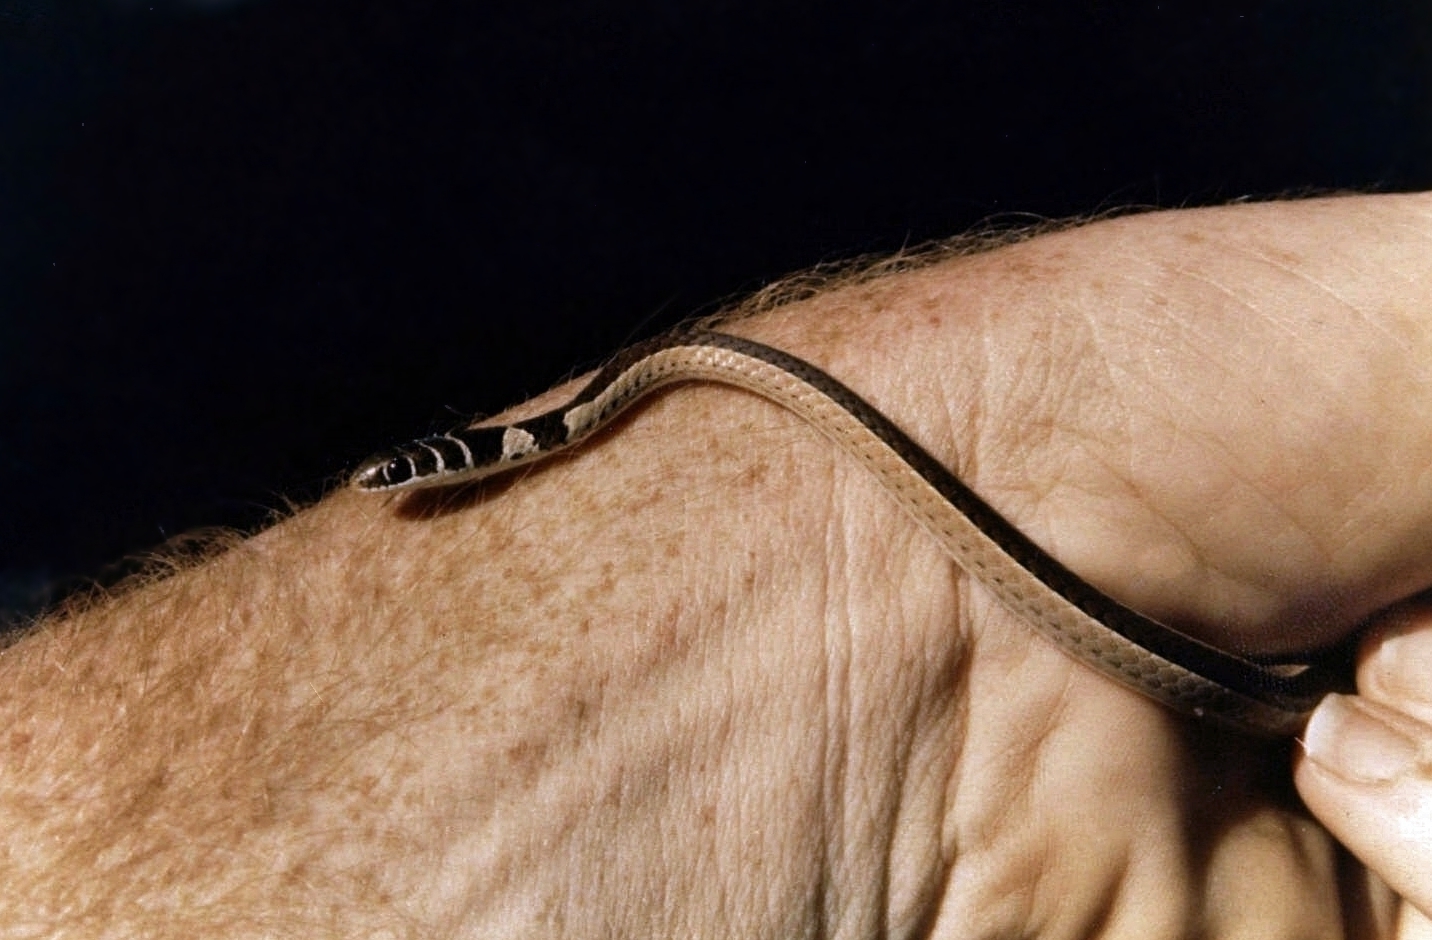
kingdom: Animalia
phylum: Chordata
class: Squamata
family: Psammophiidae
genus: Psammophis
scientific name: Psammophis angolensis
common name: Dwarf sand snake
